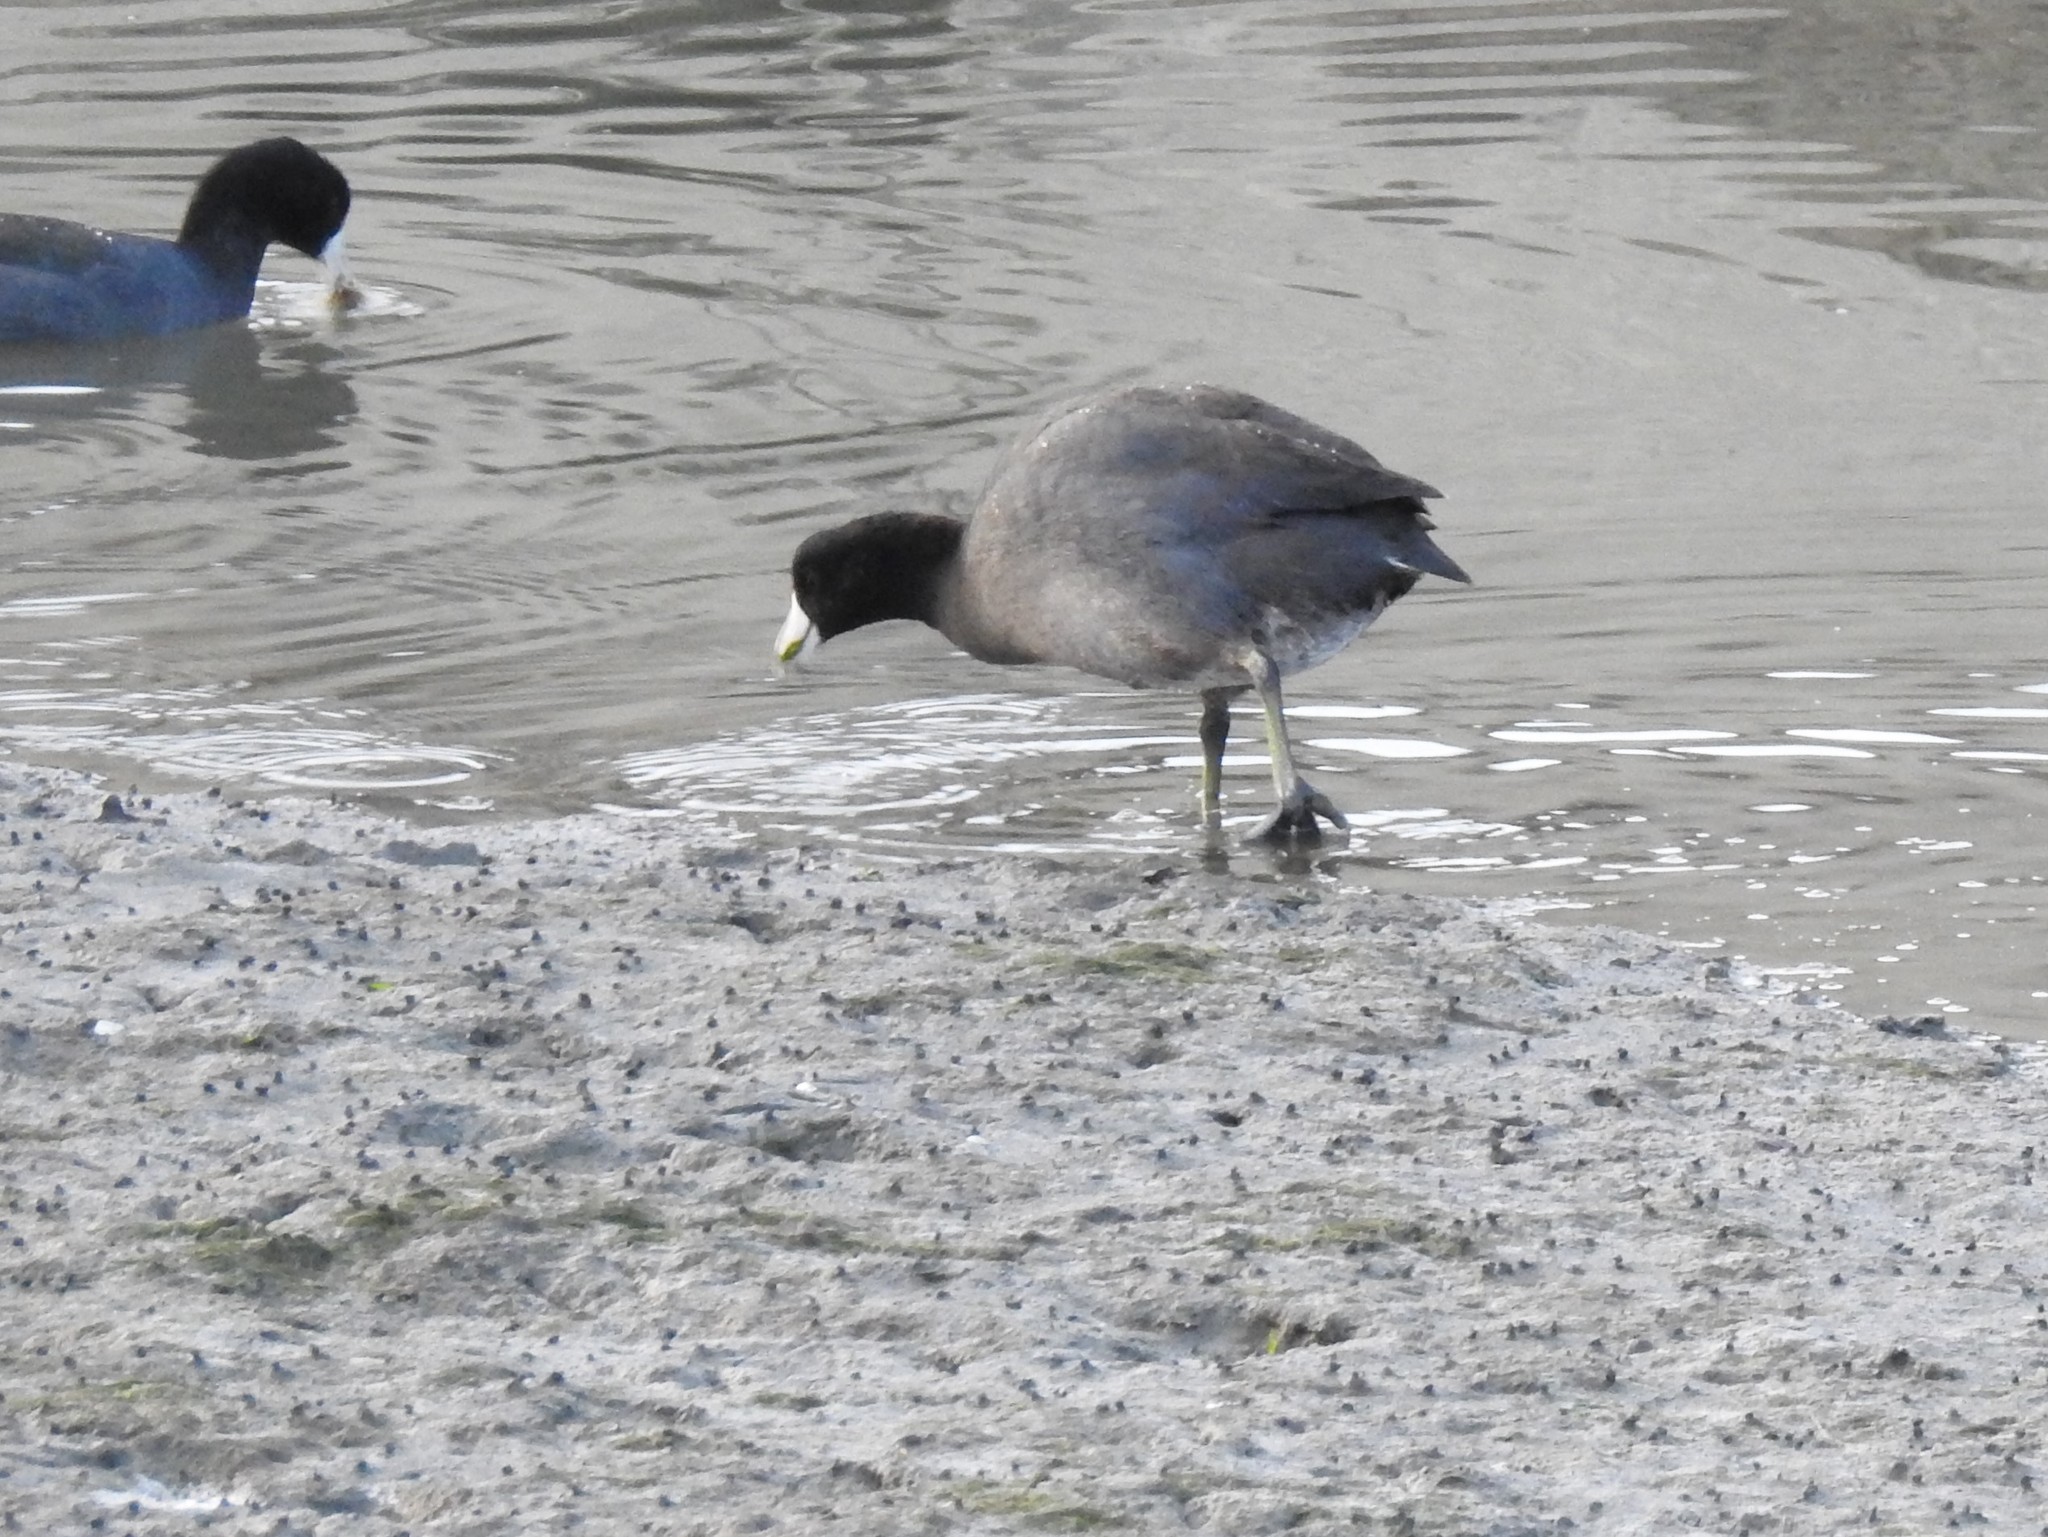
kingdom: Animalia
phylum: Chordata
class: Aves
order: Gruiformes
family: Rallidae
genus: Fulica
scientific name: Fulica americana
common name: American coot
